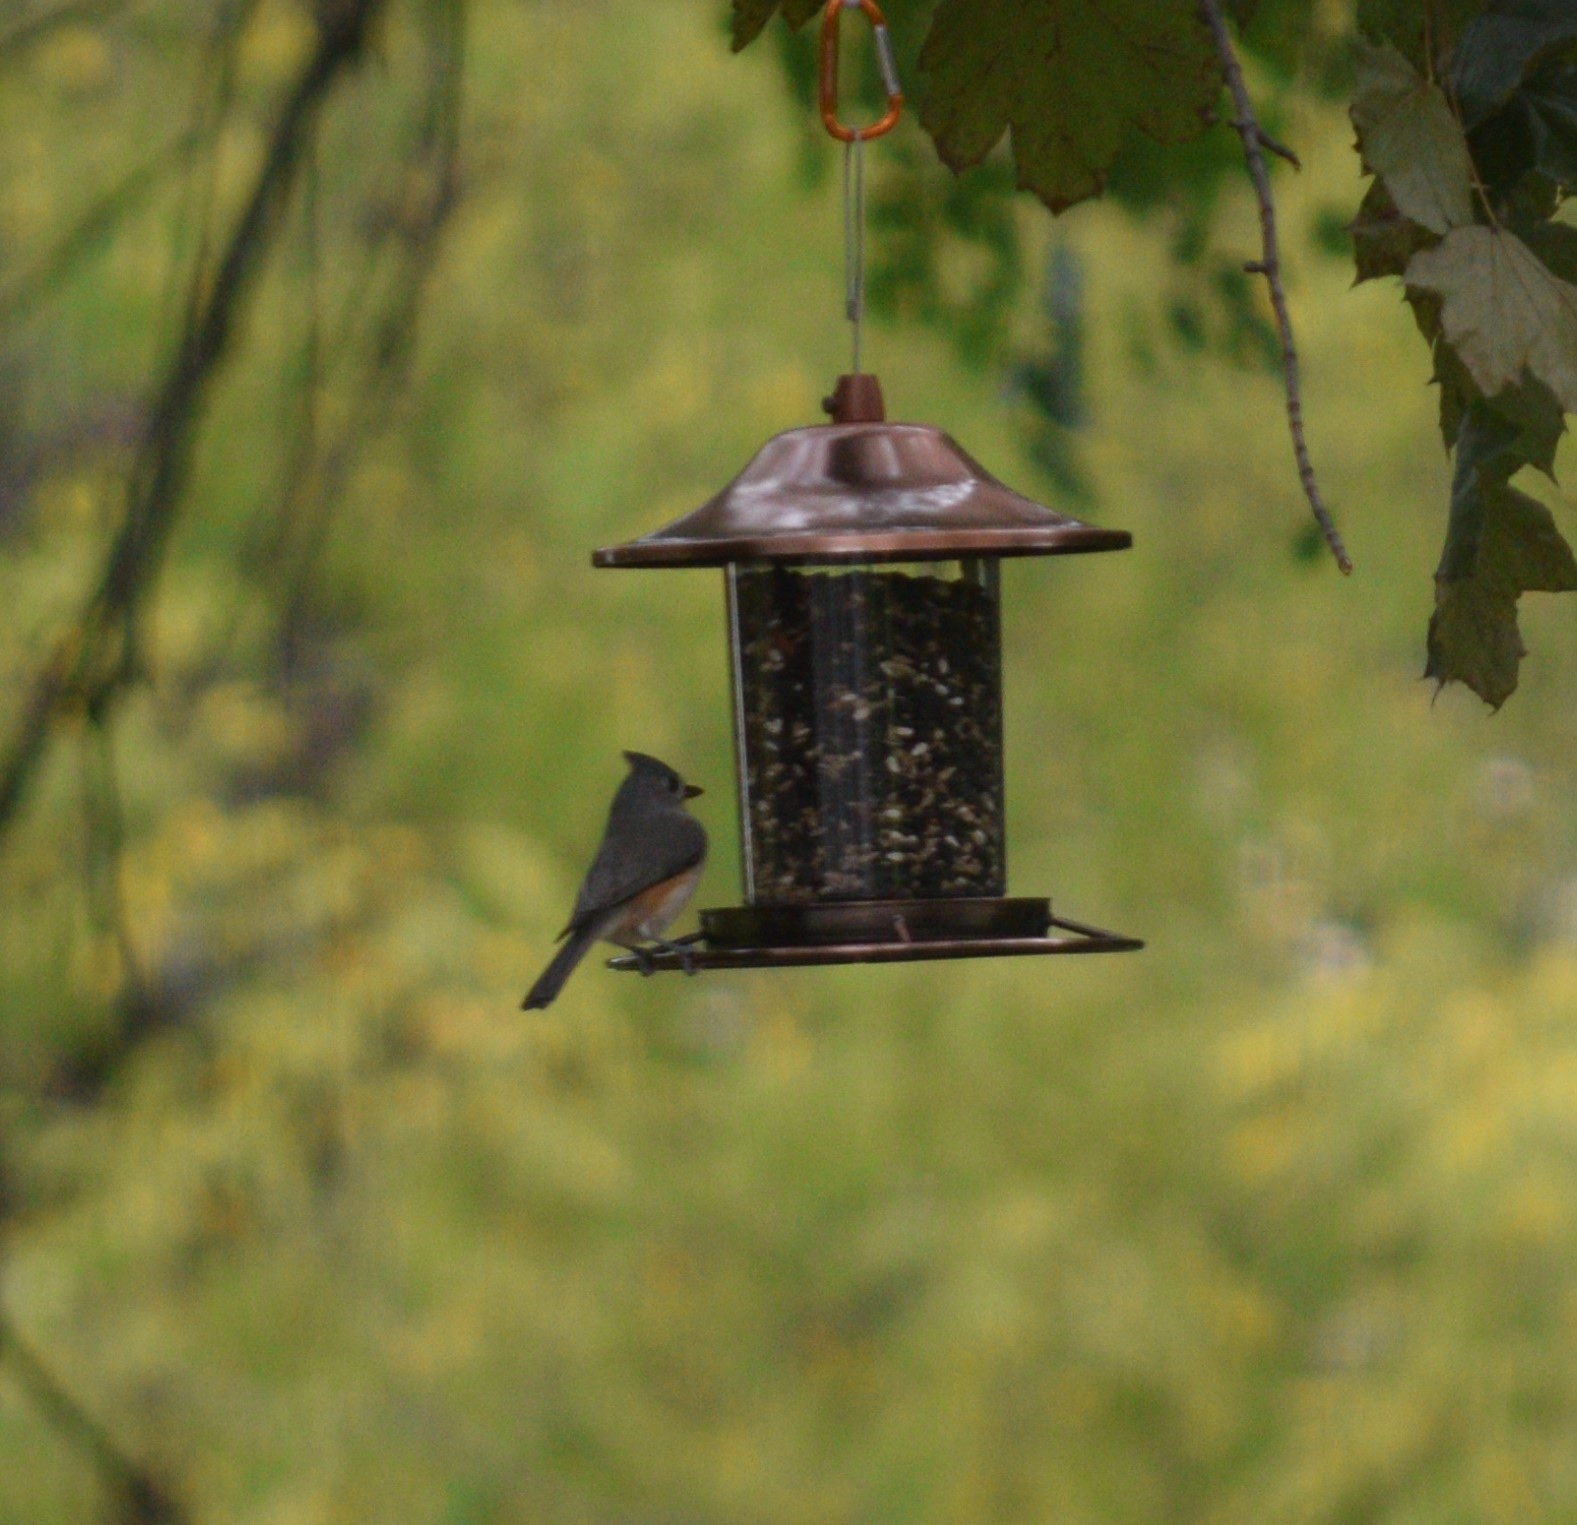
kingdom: Animalia
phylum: Chordata
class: Aves
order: Passeriformes
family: Paridae
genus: Baeolophus
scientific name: Baeolophus bicolor
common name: Tufted titmouse
